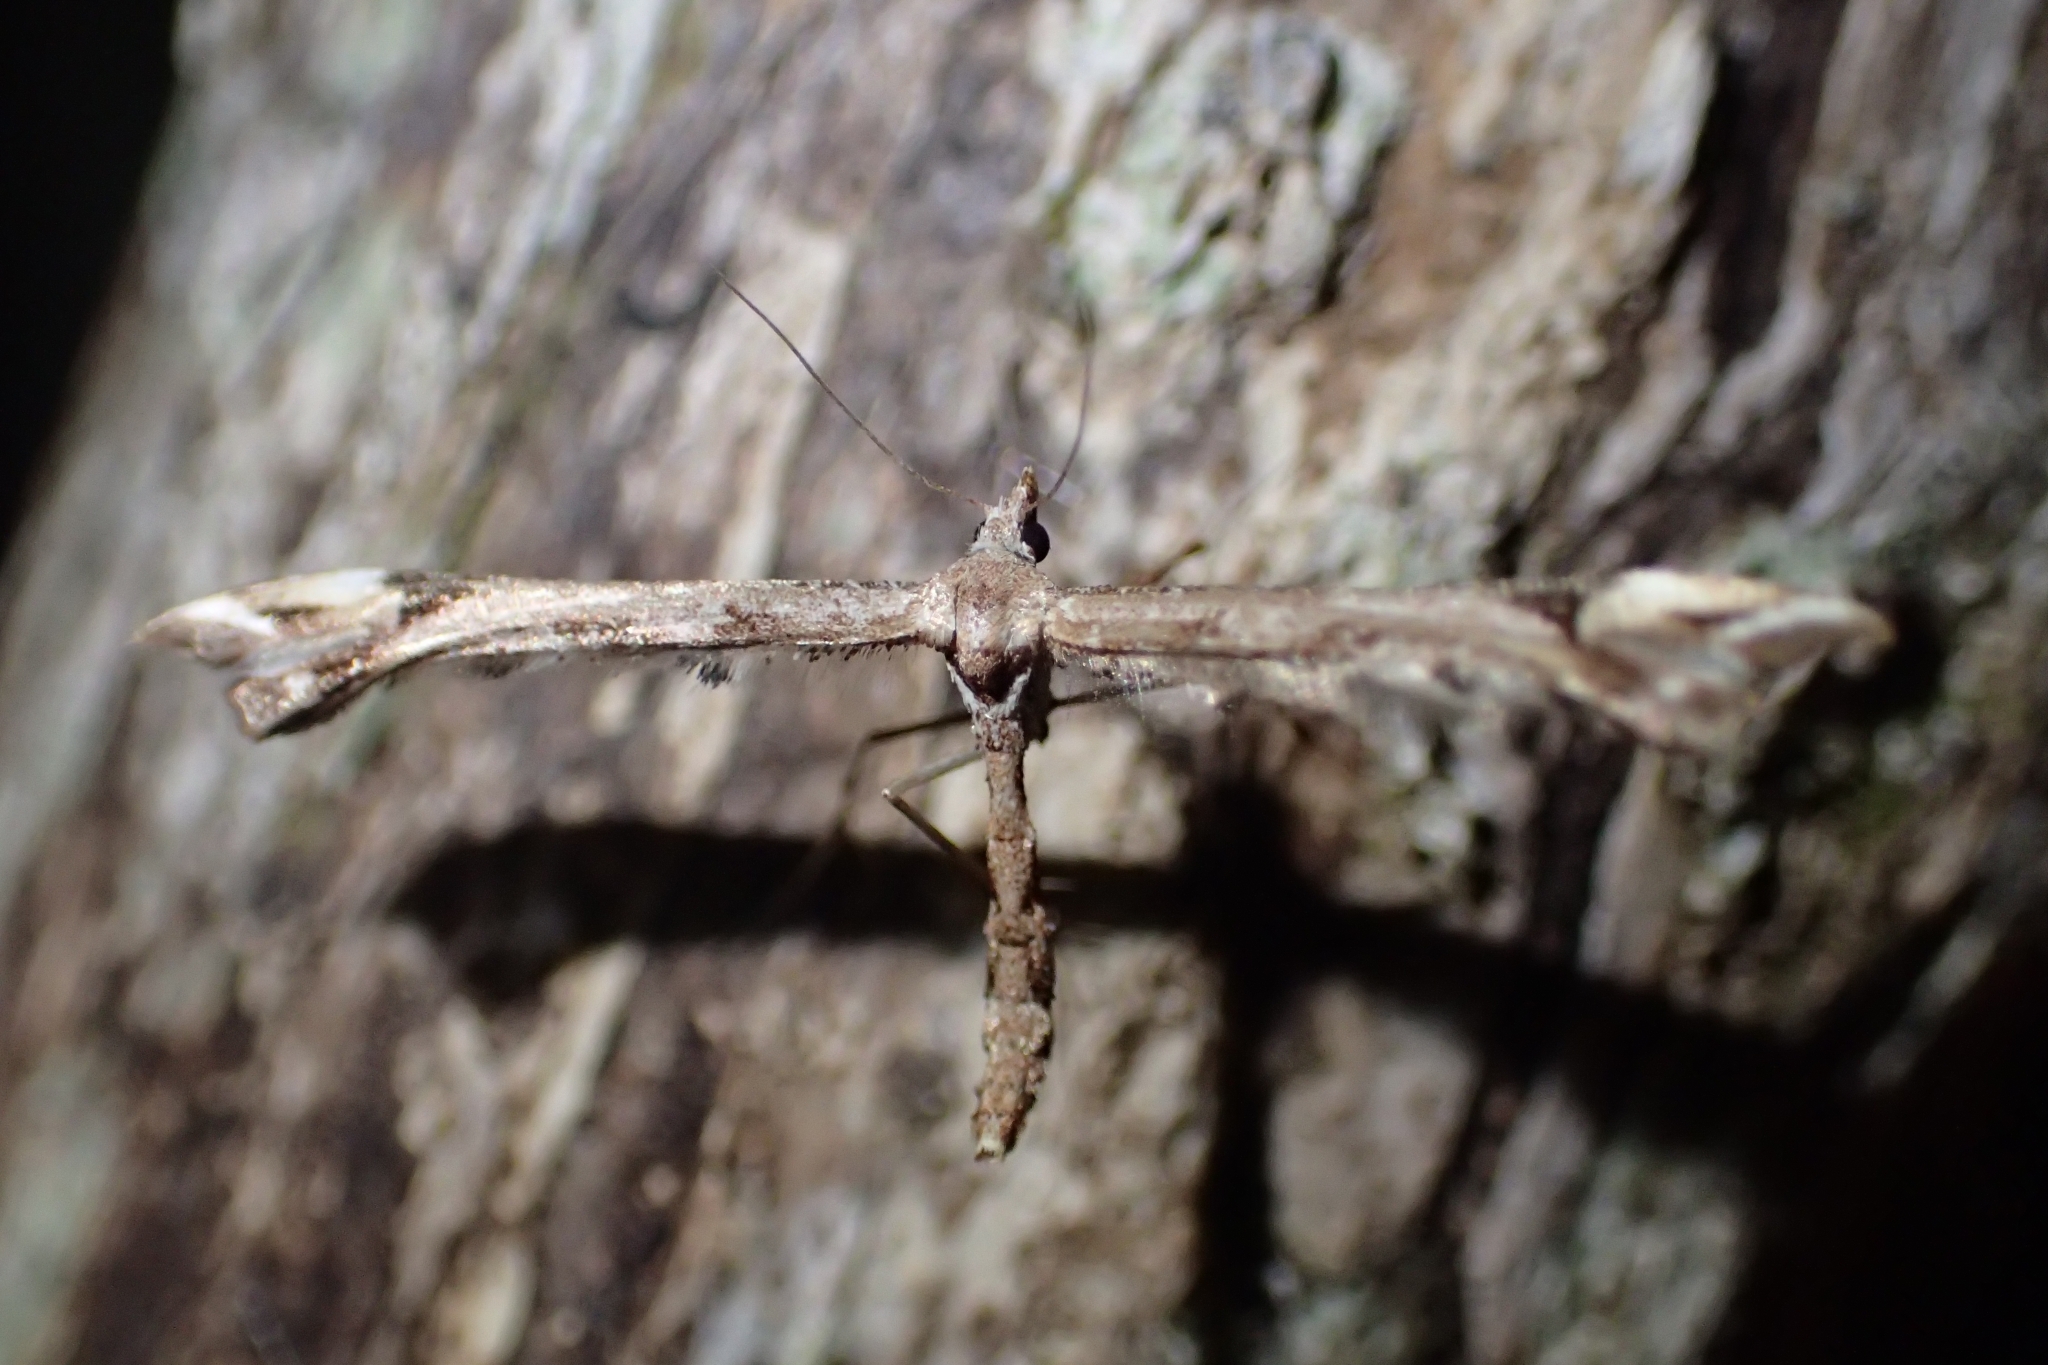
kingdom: Animalia
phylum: Arthropoda
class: Insecta
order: Lepidoptera
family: Pterophoridae
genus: Amblyptilia
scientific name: Amblyptilia falcatalis
